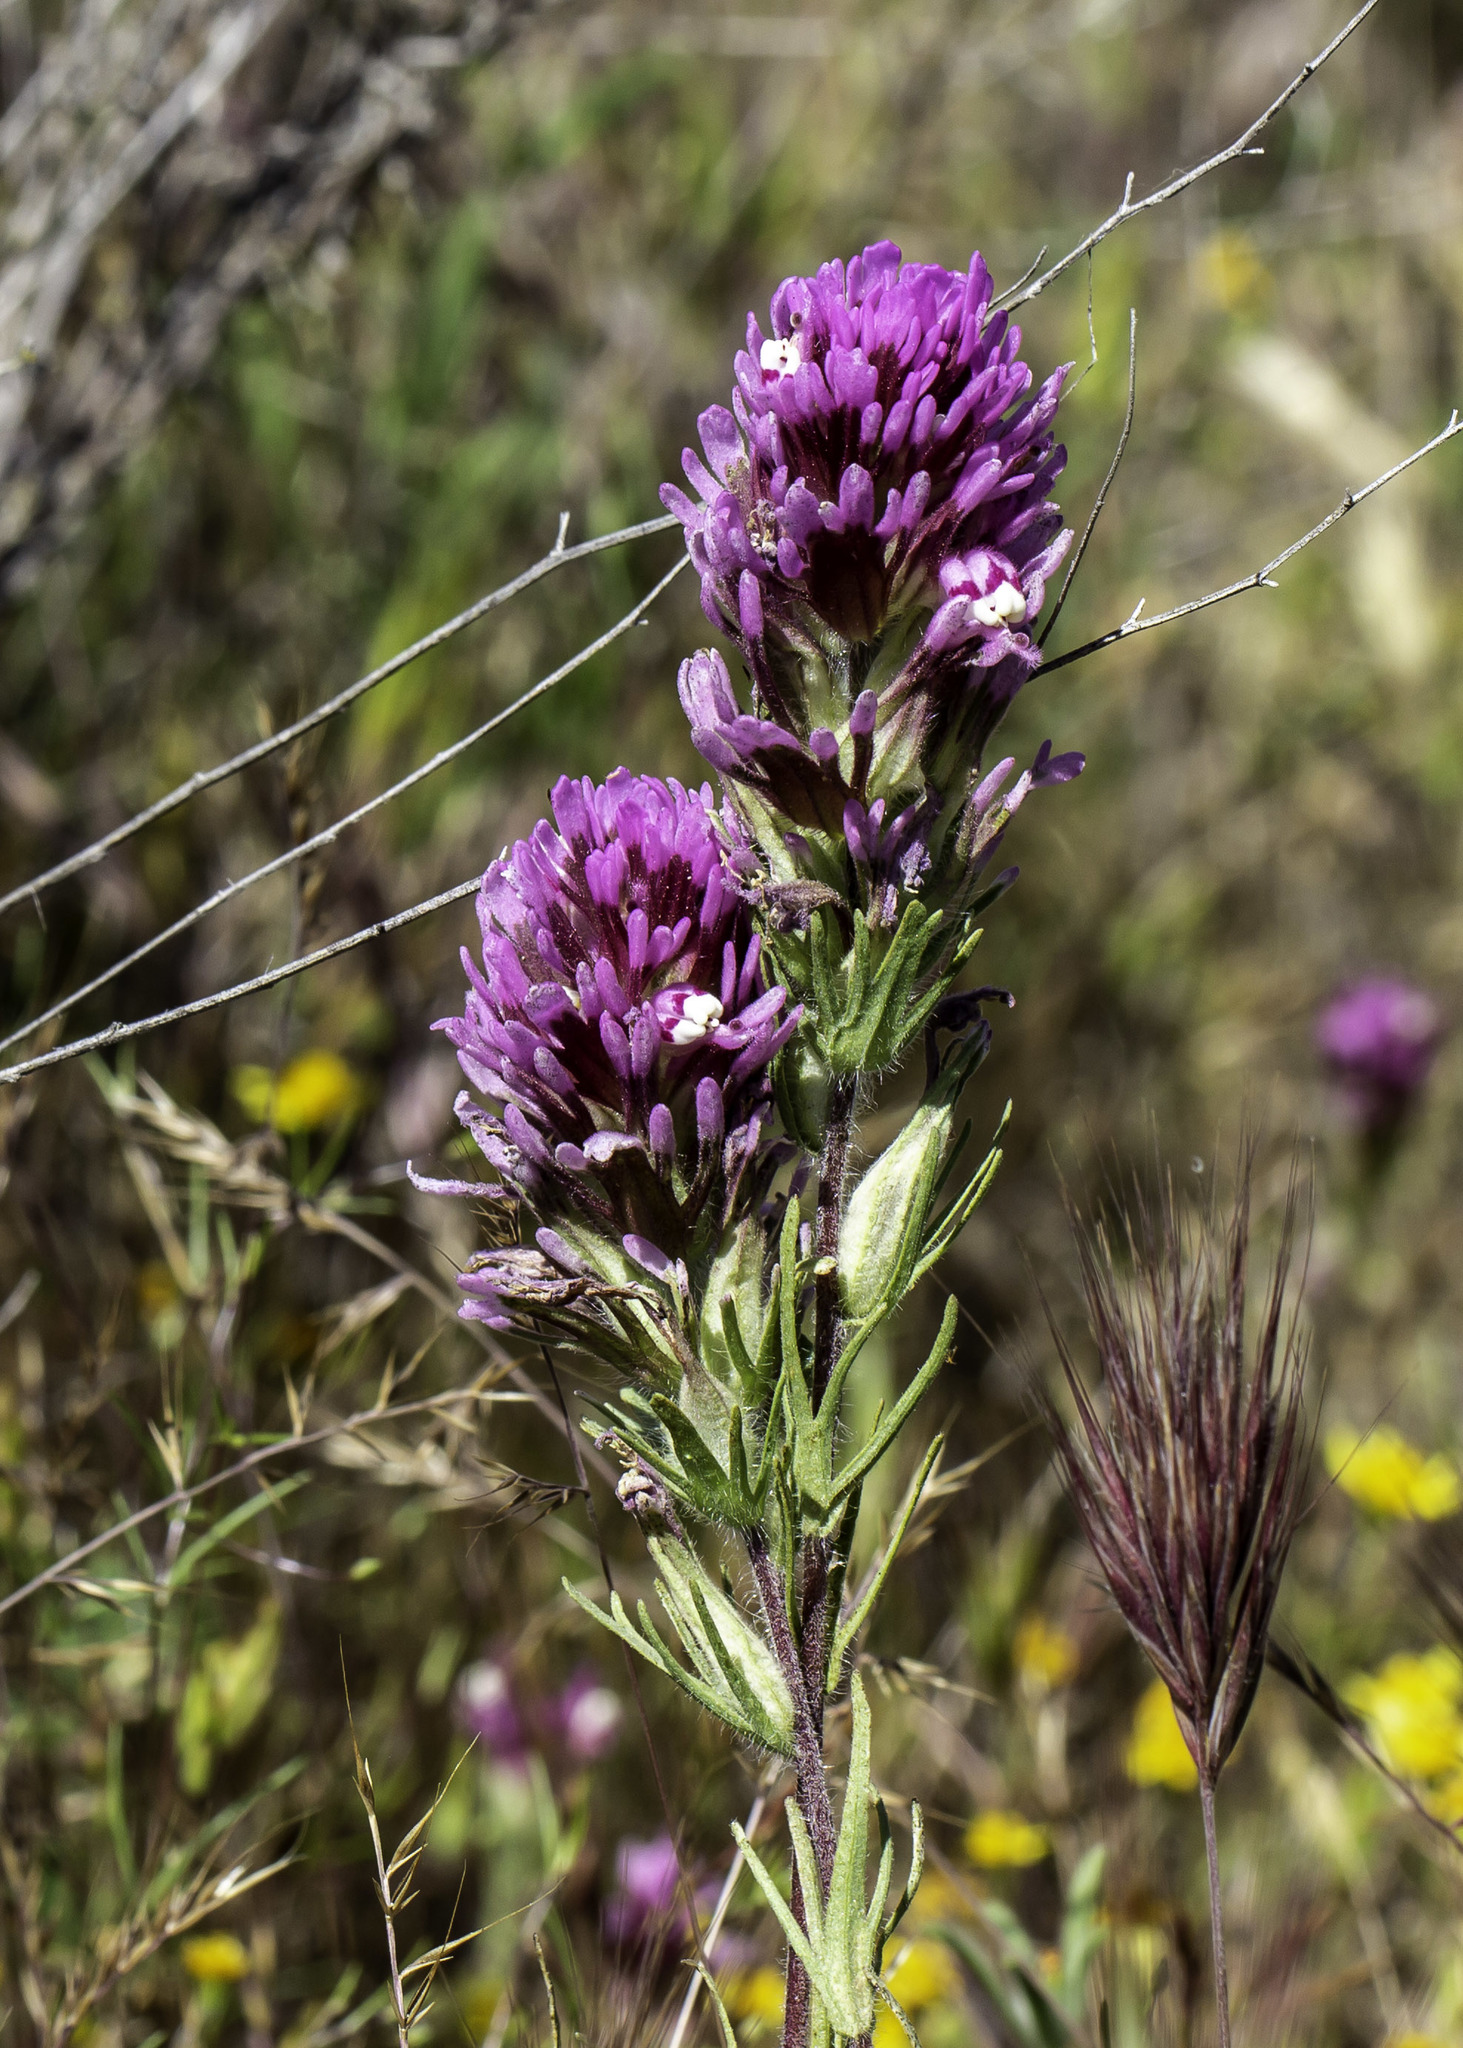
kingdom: Plantae
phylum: Tracheophyta
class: Magnoliopsida
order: Lamiales
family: Orobanchaceae
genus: Castilleja
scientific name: Castilleja exserta
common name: Purple owl-clover
